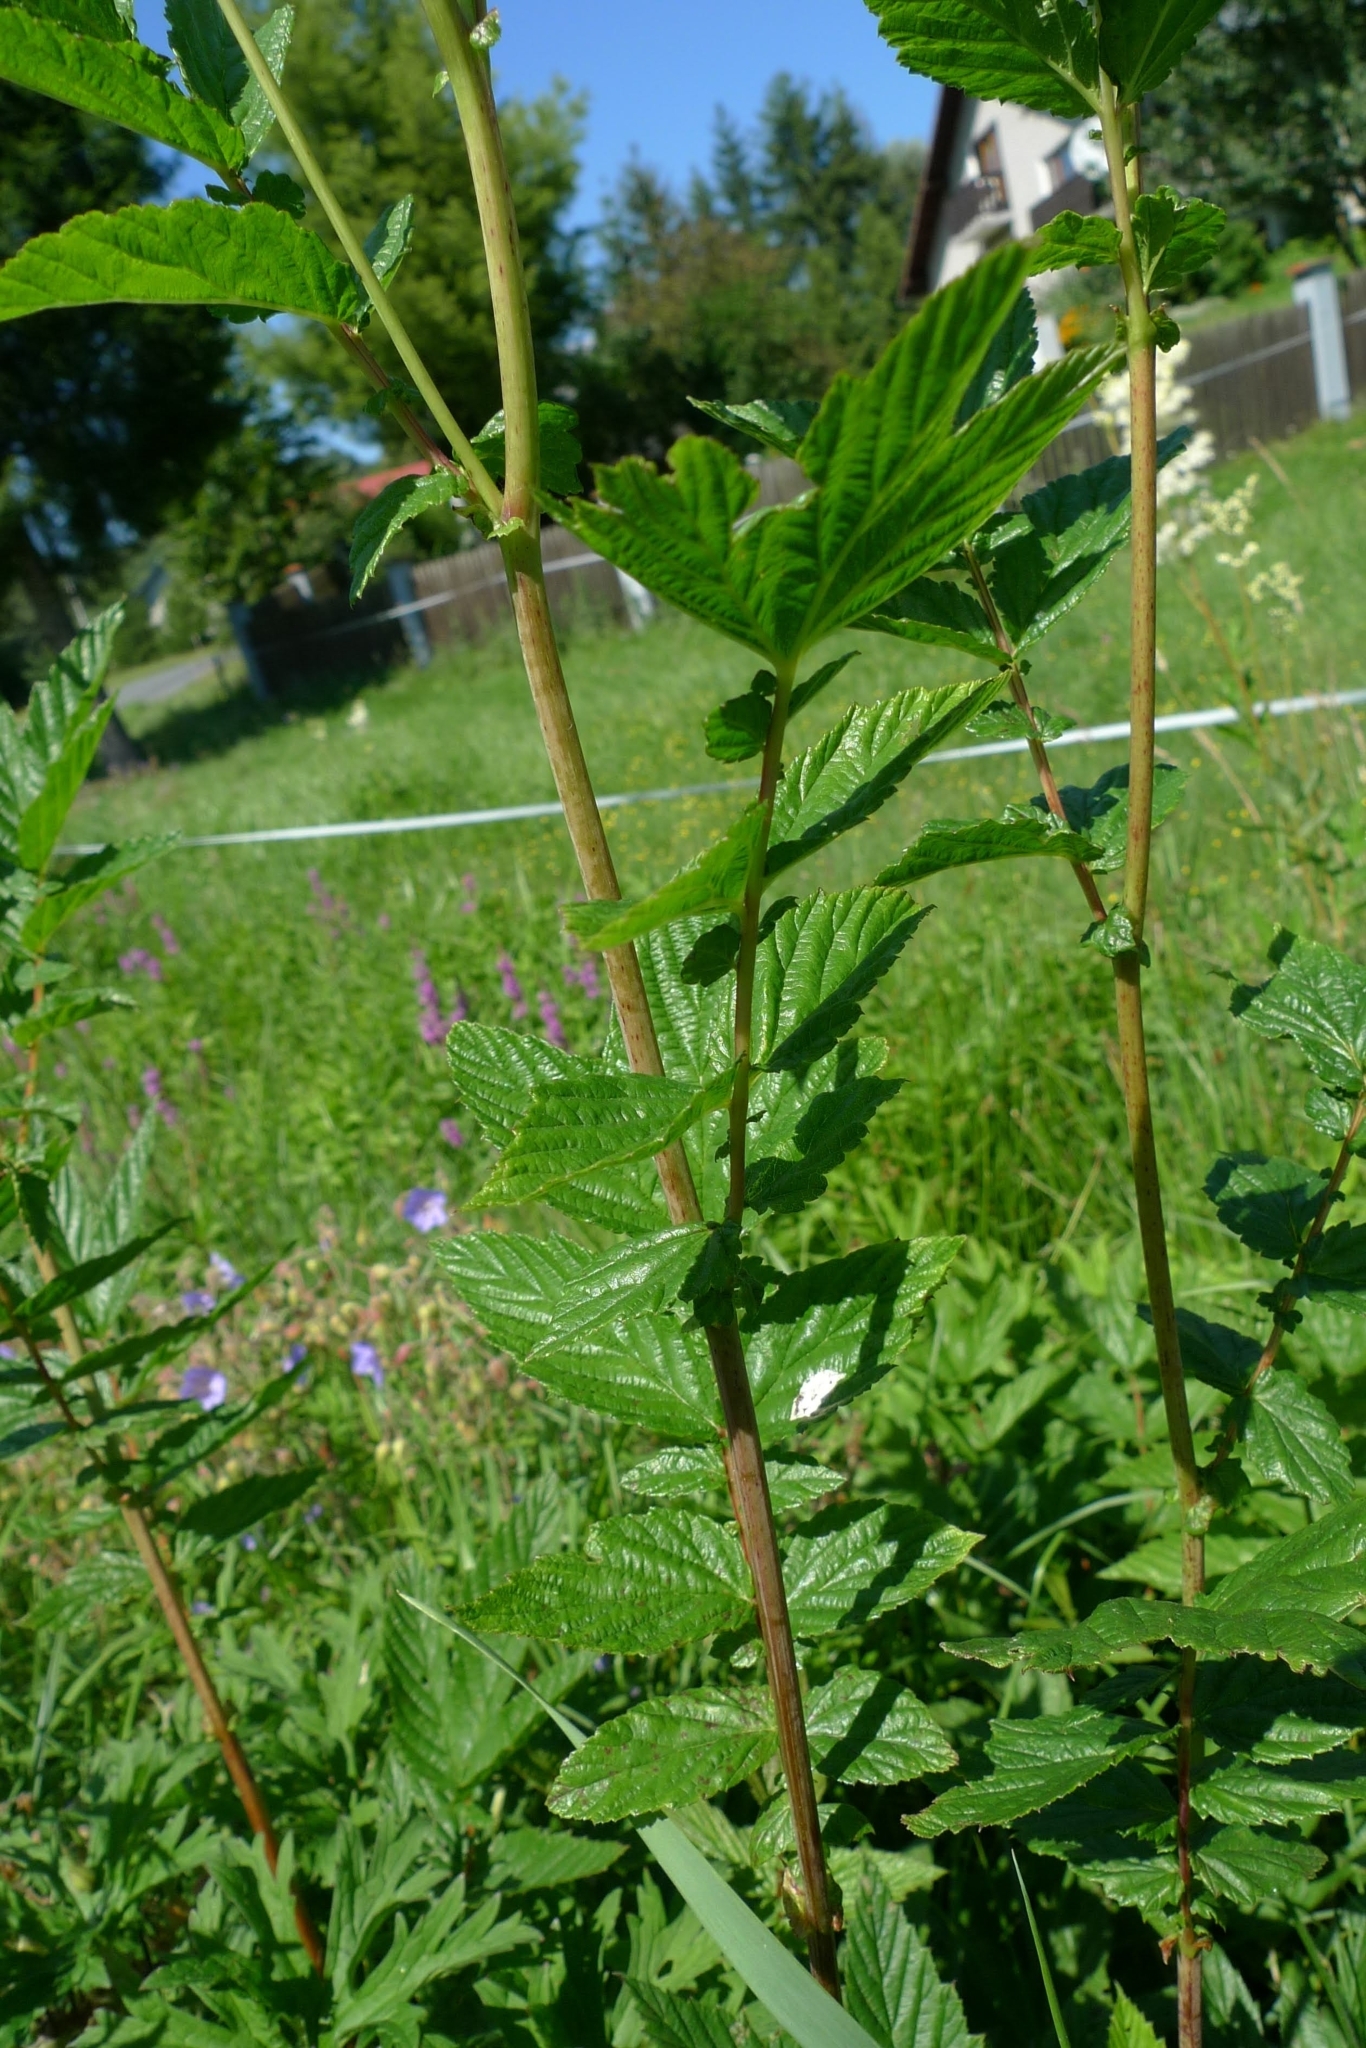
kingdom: Plantae
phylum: Tracheophyta
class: Magnoliopsida
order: Rosales
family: Rosaceae
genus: Filipendula
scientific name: Filipendula ulmaria
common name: Meadowsweet
